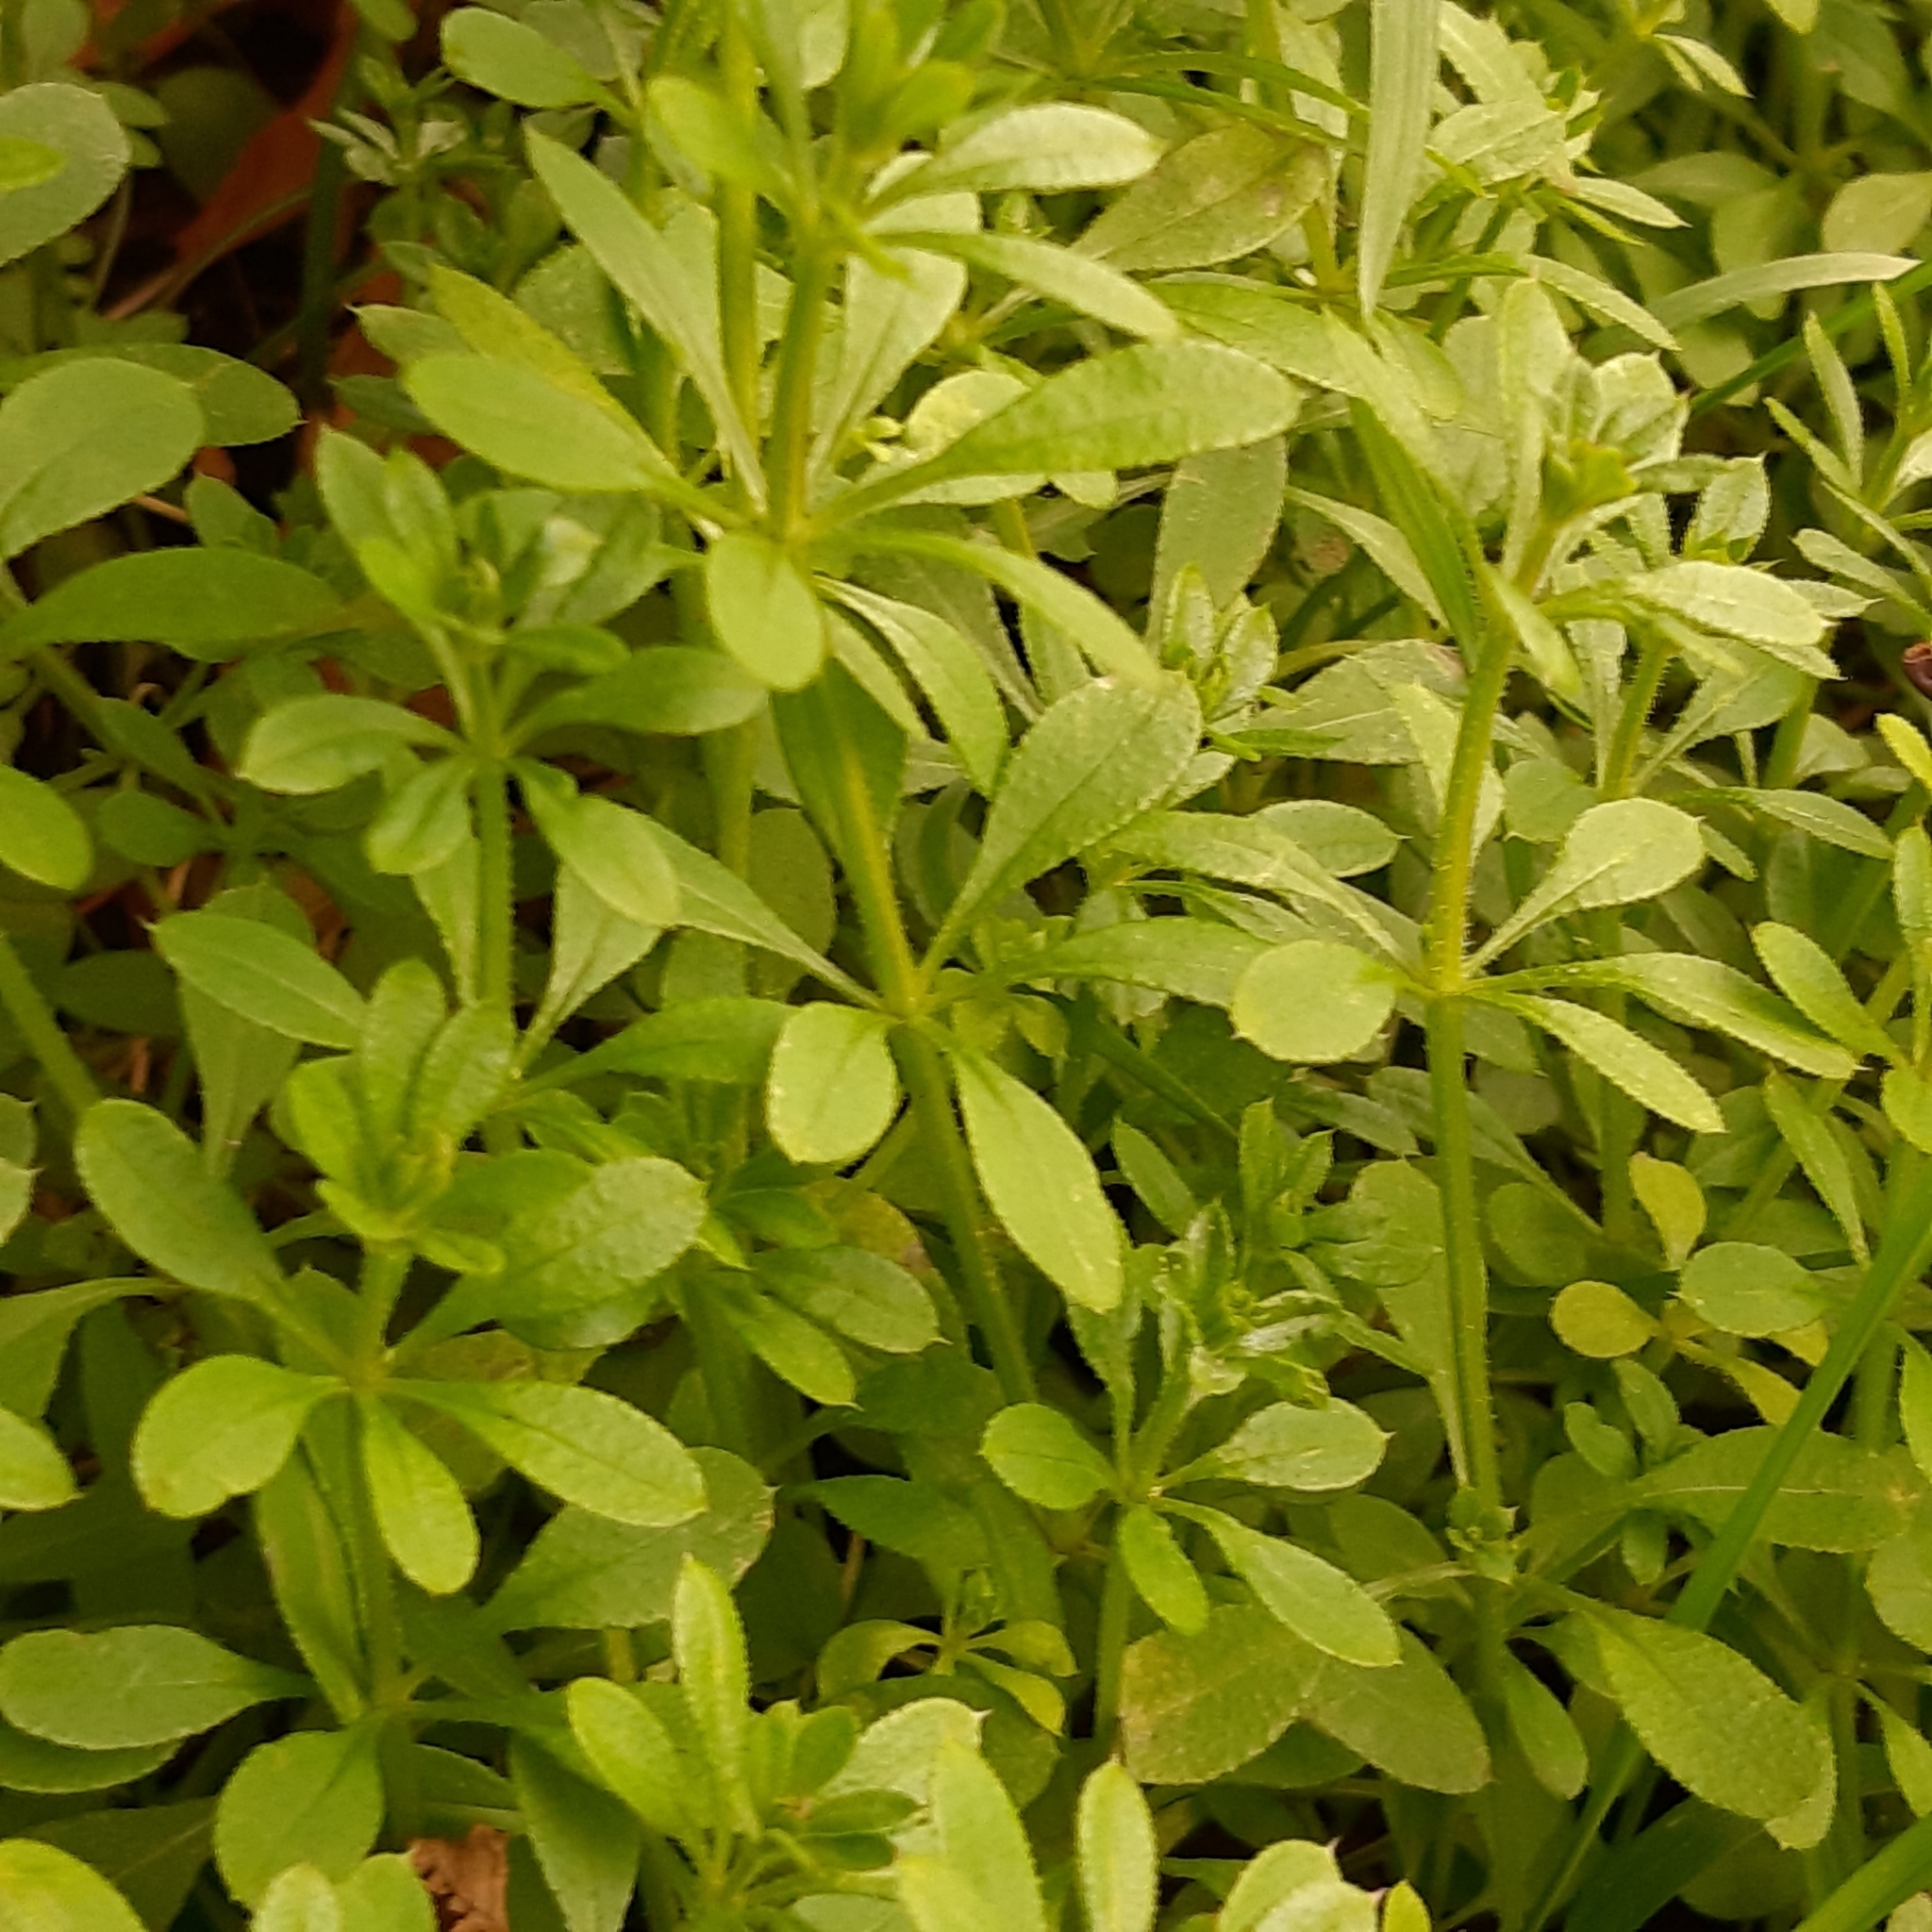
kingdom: Plantae
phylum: Tracheophyta
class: Magnoliopsida
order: Gentianales
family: Rubiaceae
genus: Galium
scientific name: Galium aparine
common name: Cleavers
